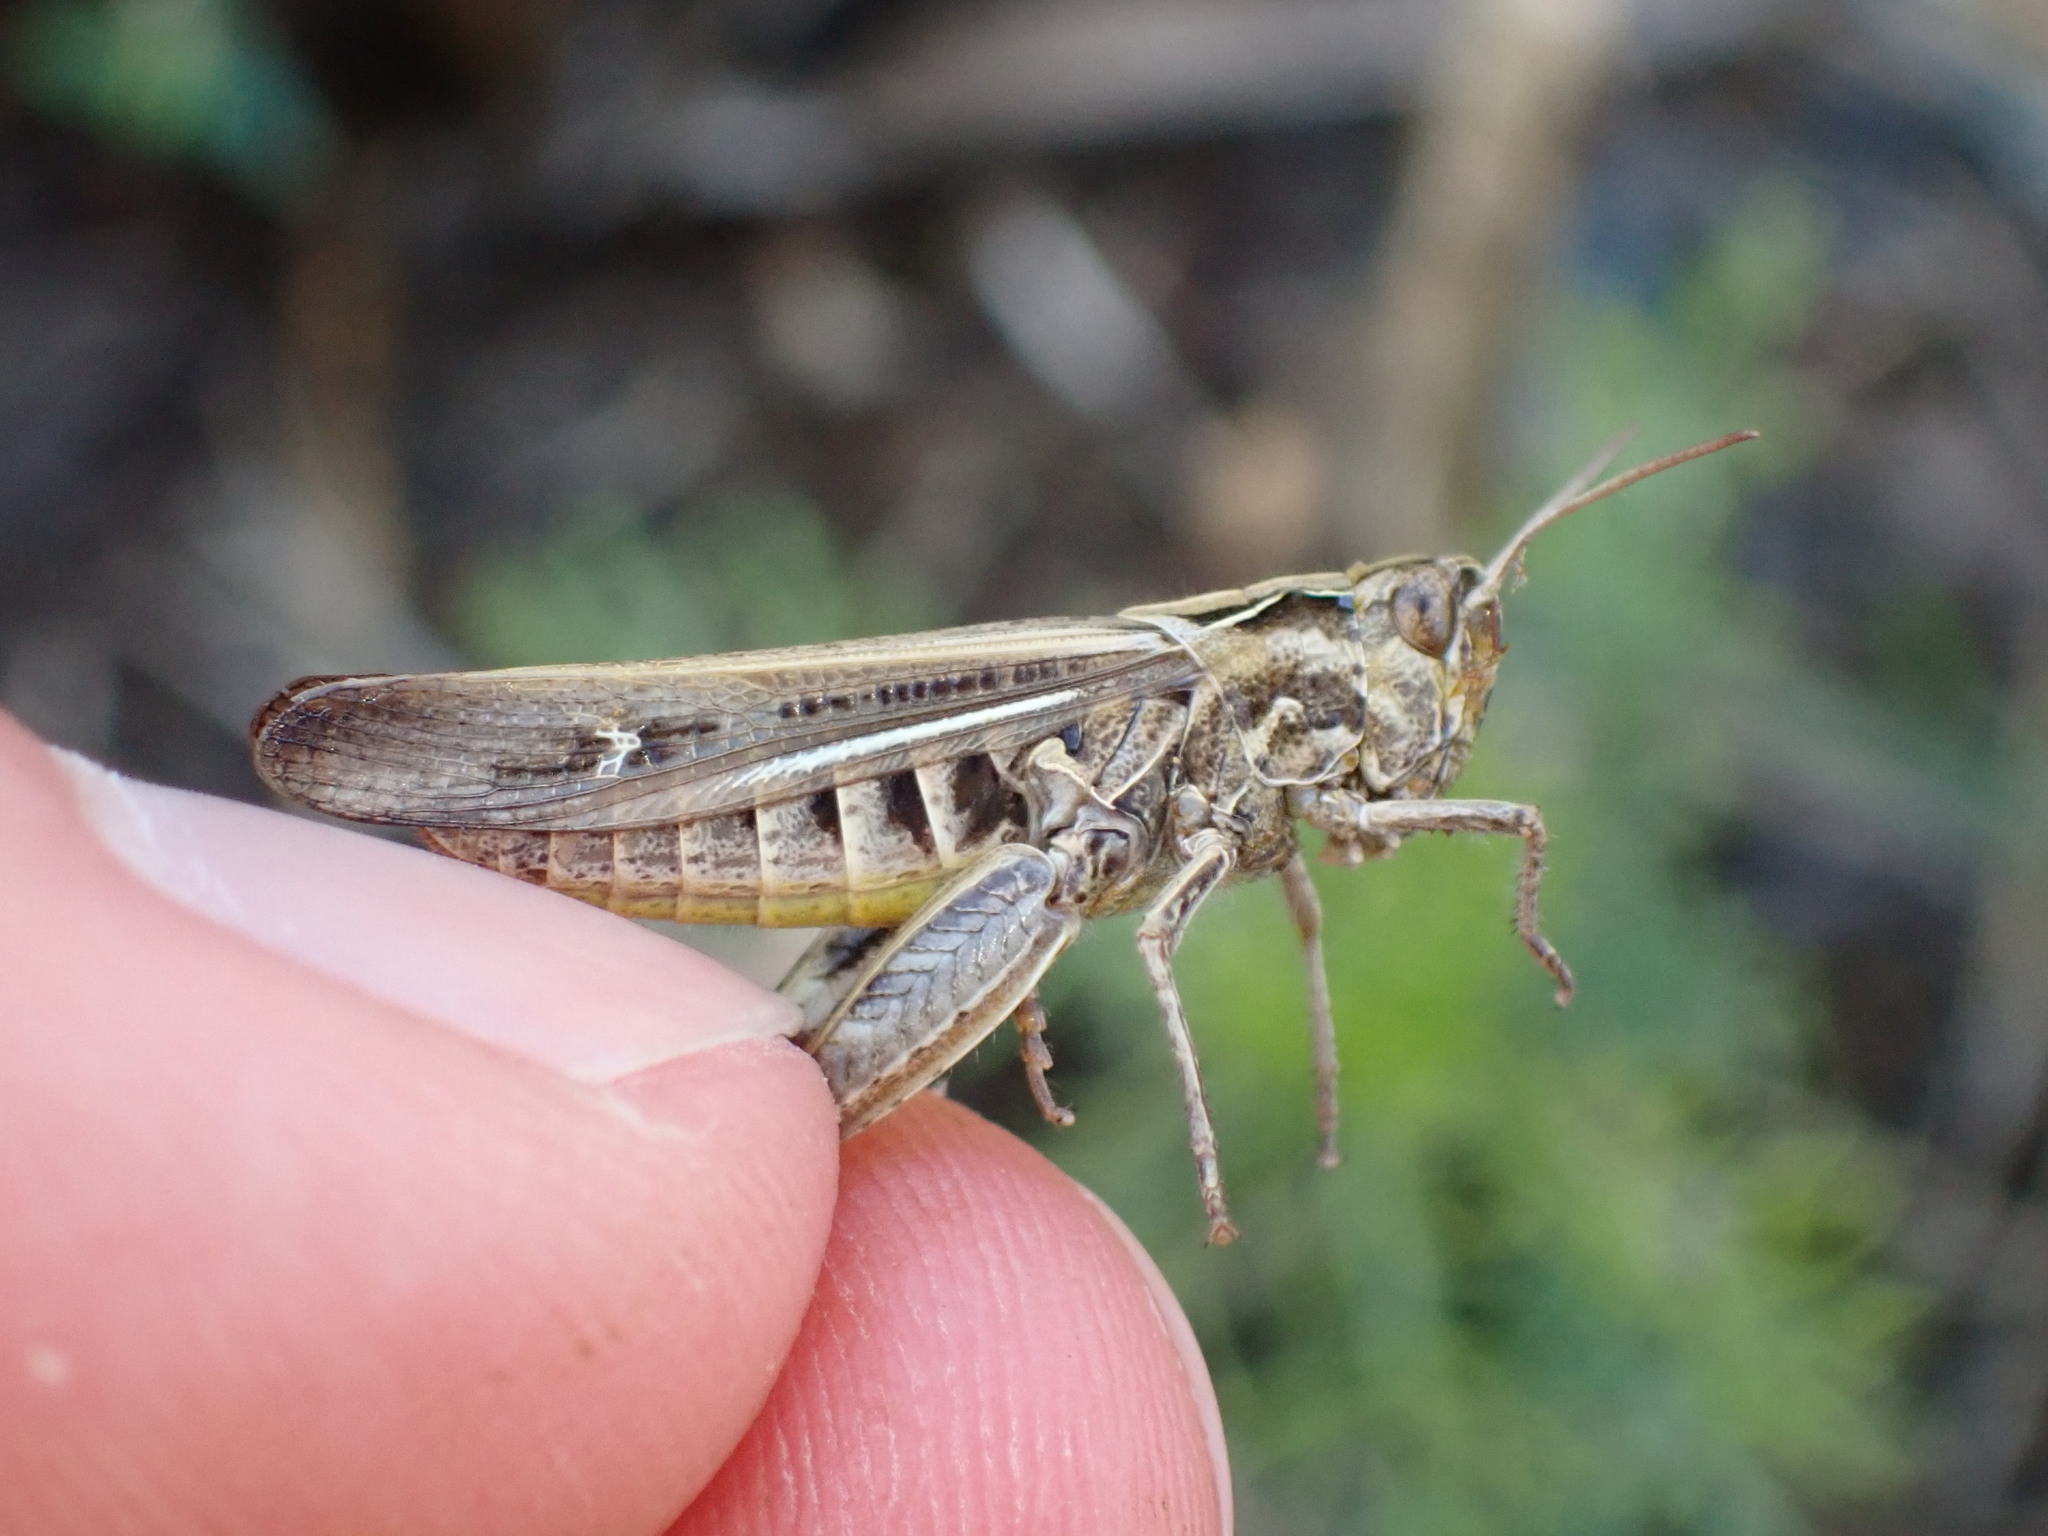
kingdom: Animalia
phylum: Arthropoda
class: Insecta
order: Orthoptera
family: Acrididae
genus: Glyptobothrus
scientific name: Glyptobothrus
